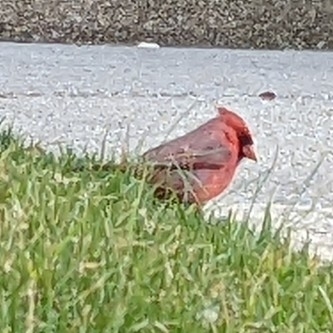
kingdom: Animalia
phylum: Chordata
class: Aves
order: Passeriformes
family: Cardinalidae
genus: Cardinalis
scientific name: Cardinalis cardinalis
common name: Northern cardinal
